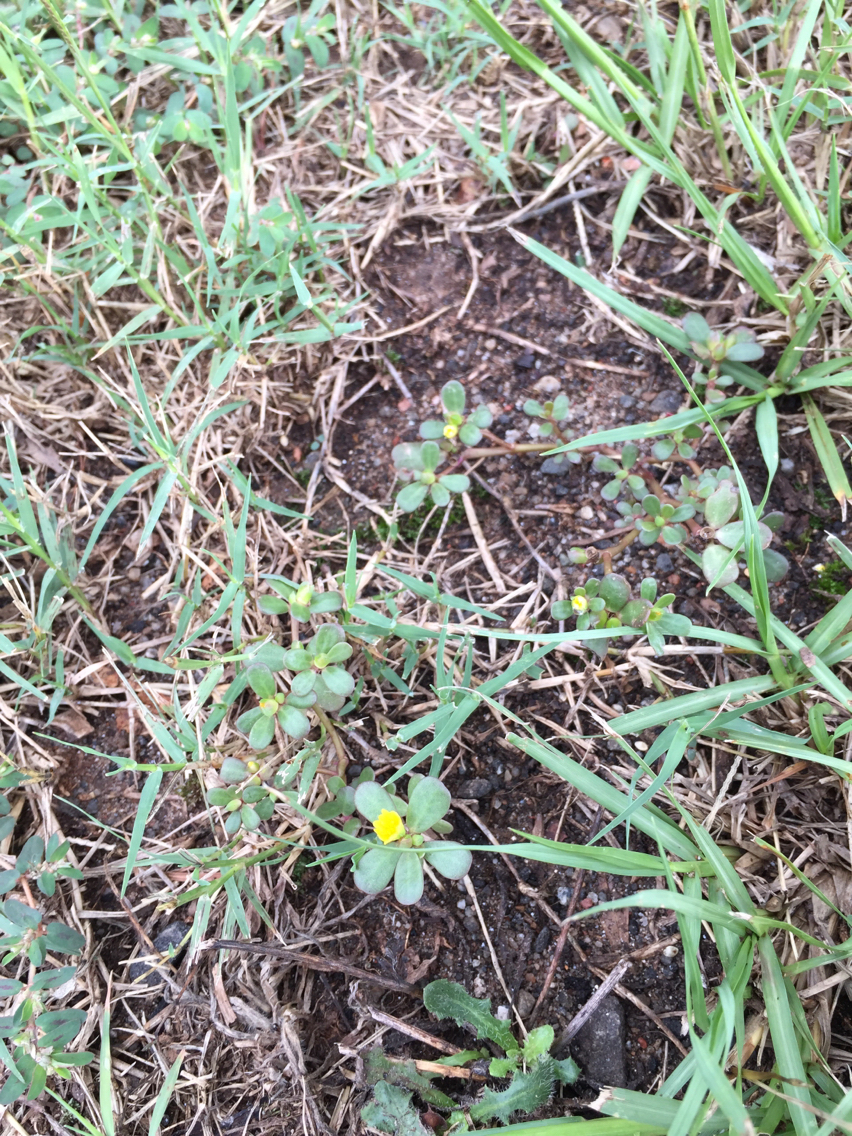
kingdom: Plantae
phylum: Tracheophyta
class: Magnoliopsida
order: Caryophyllales
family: Portulacaceae
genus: Portulaca
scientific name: Portulaca oleracea
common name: Common purslane
